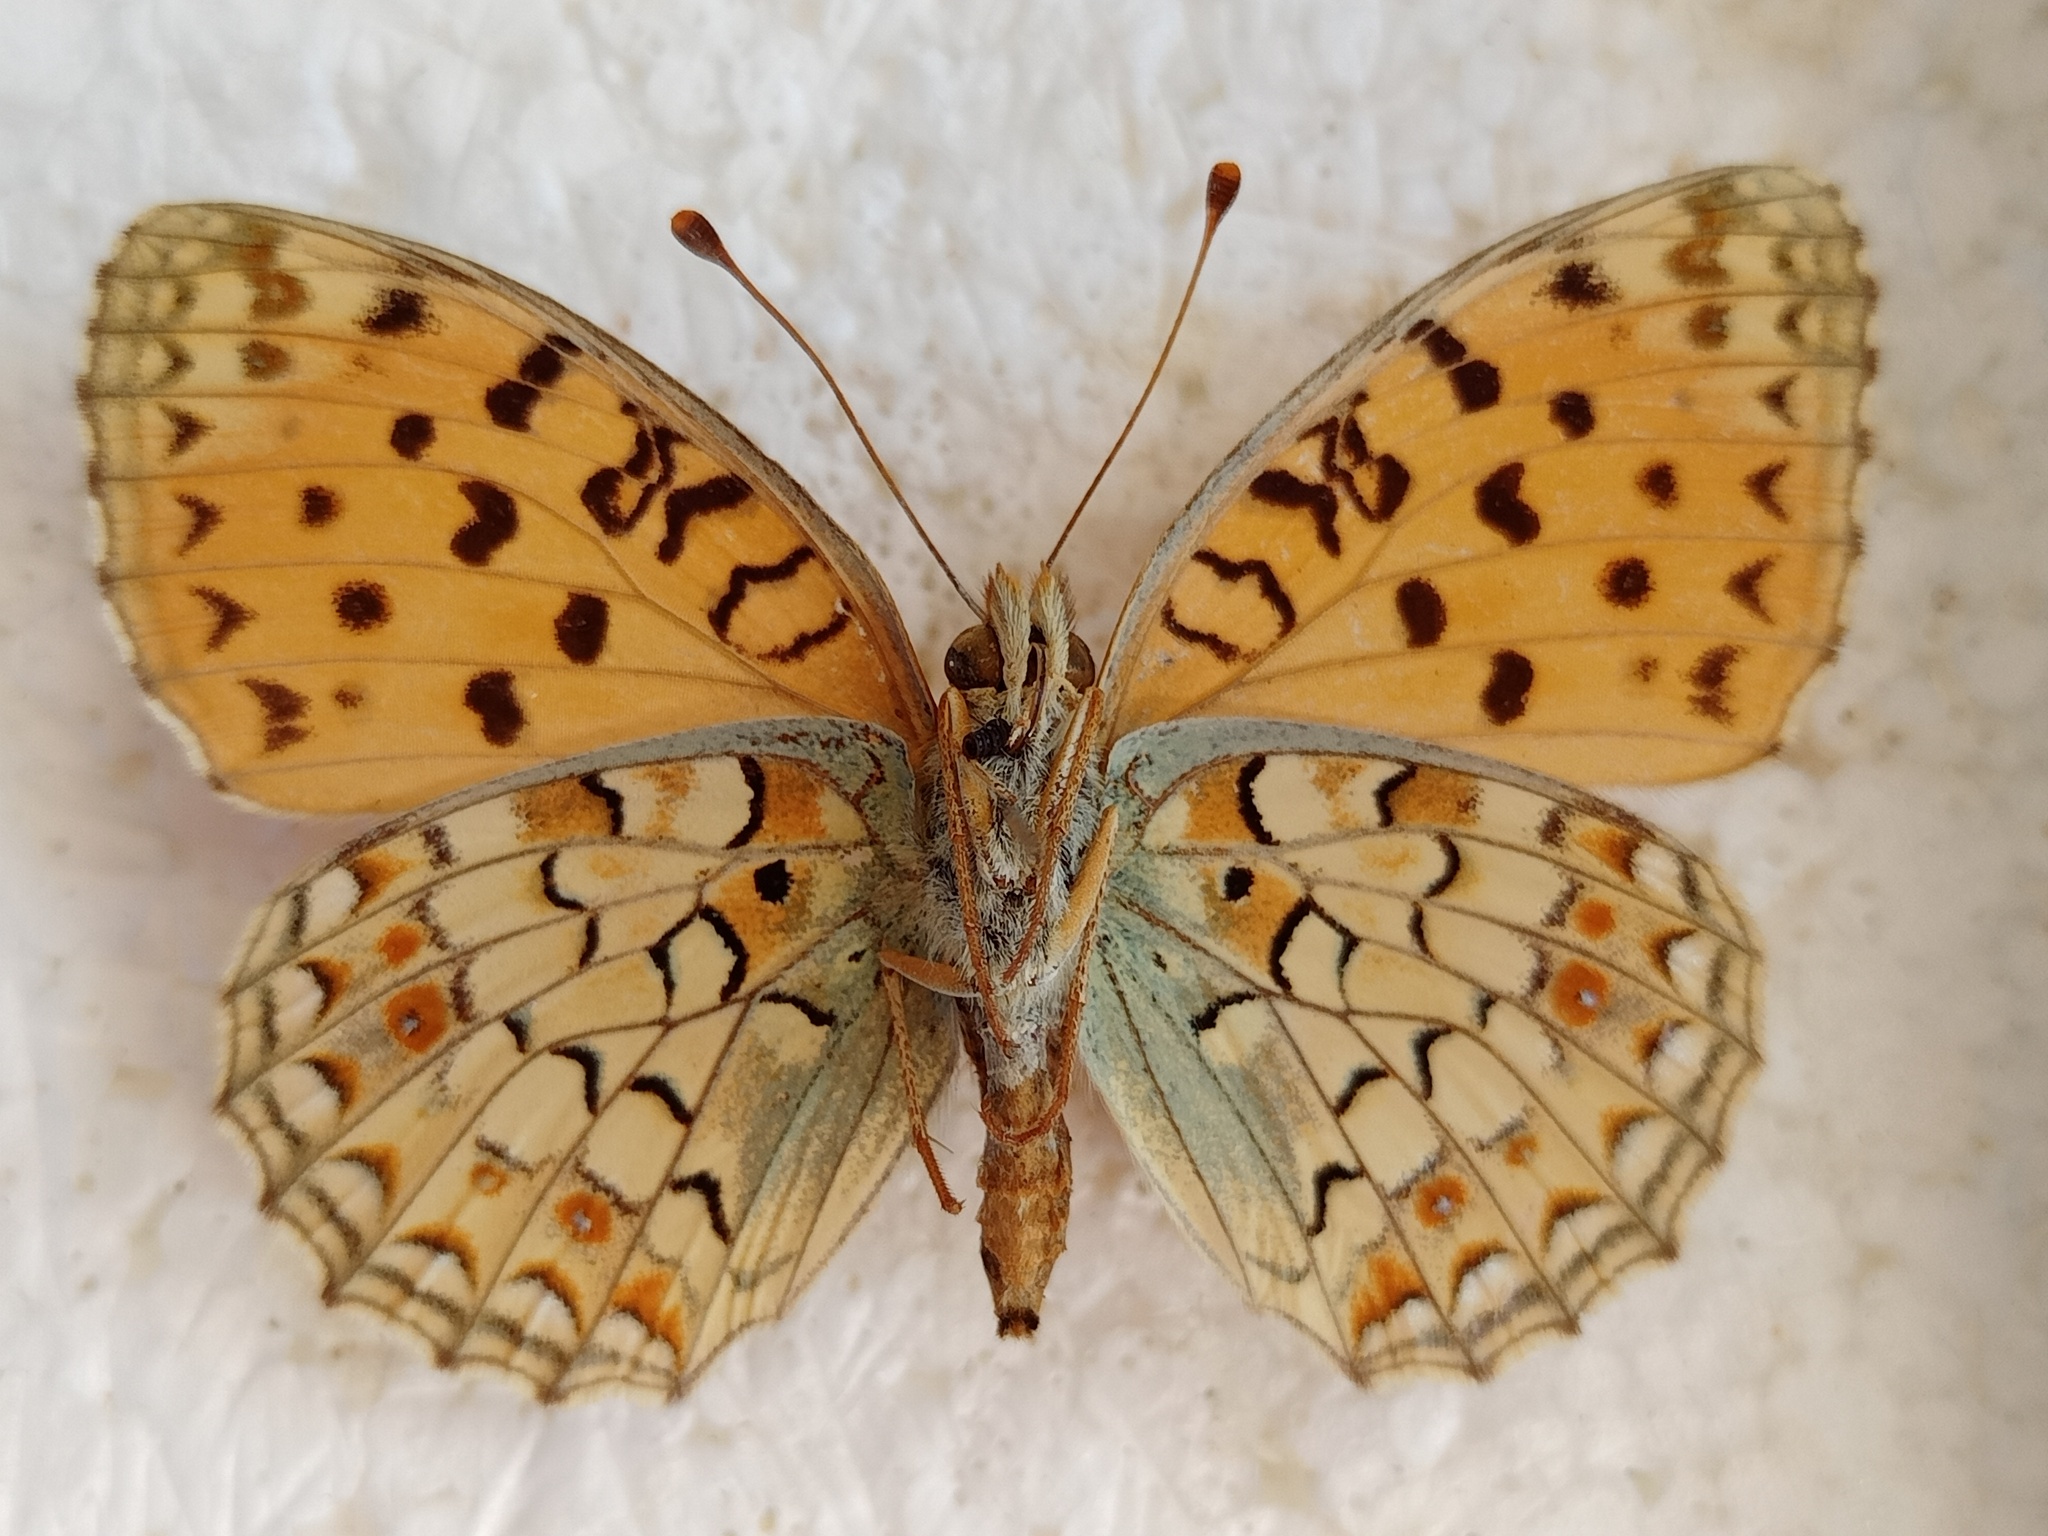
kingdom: Animalia
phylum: Arthropoda
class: Insecta
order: Lepidoptera
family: Nymphalidae
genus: Fabriciana
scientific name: Fabriciana niobe
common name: Niobe fritillary
